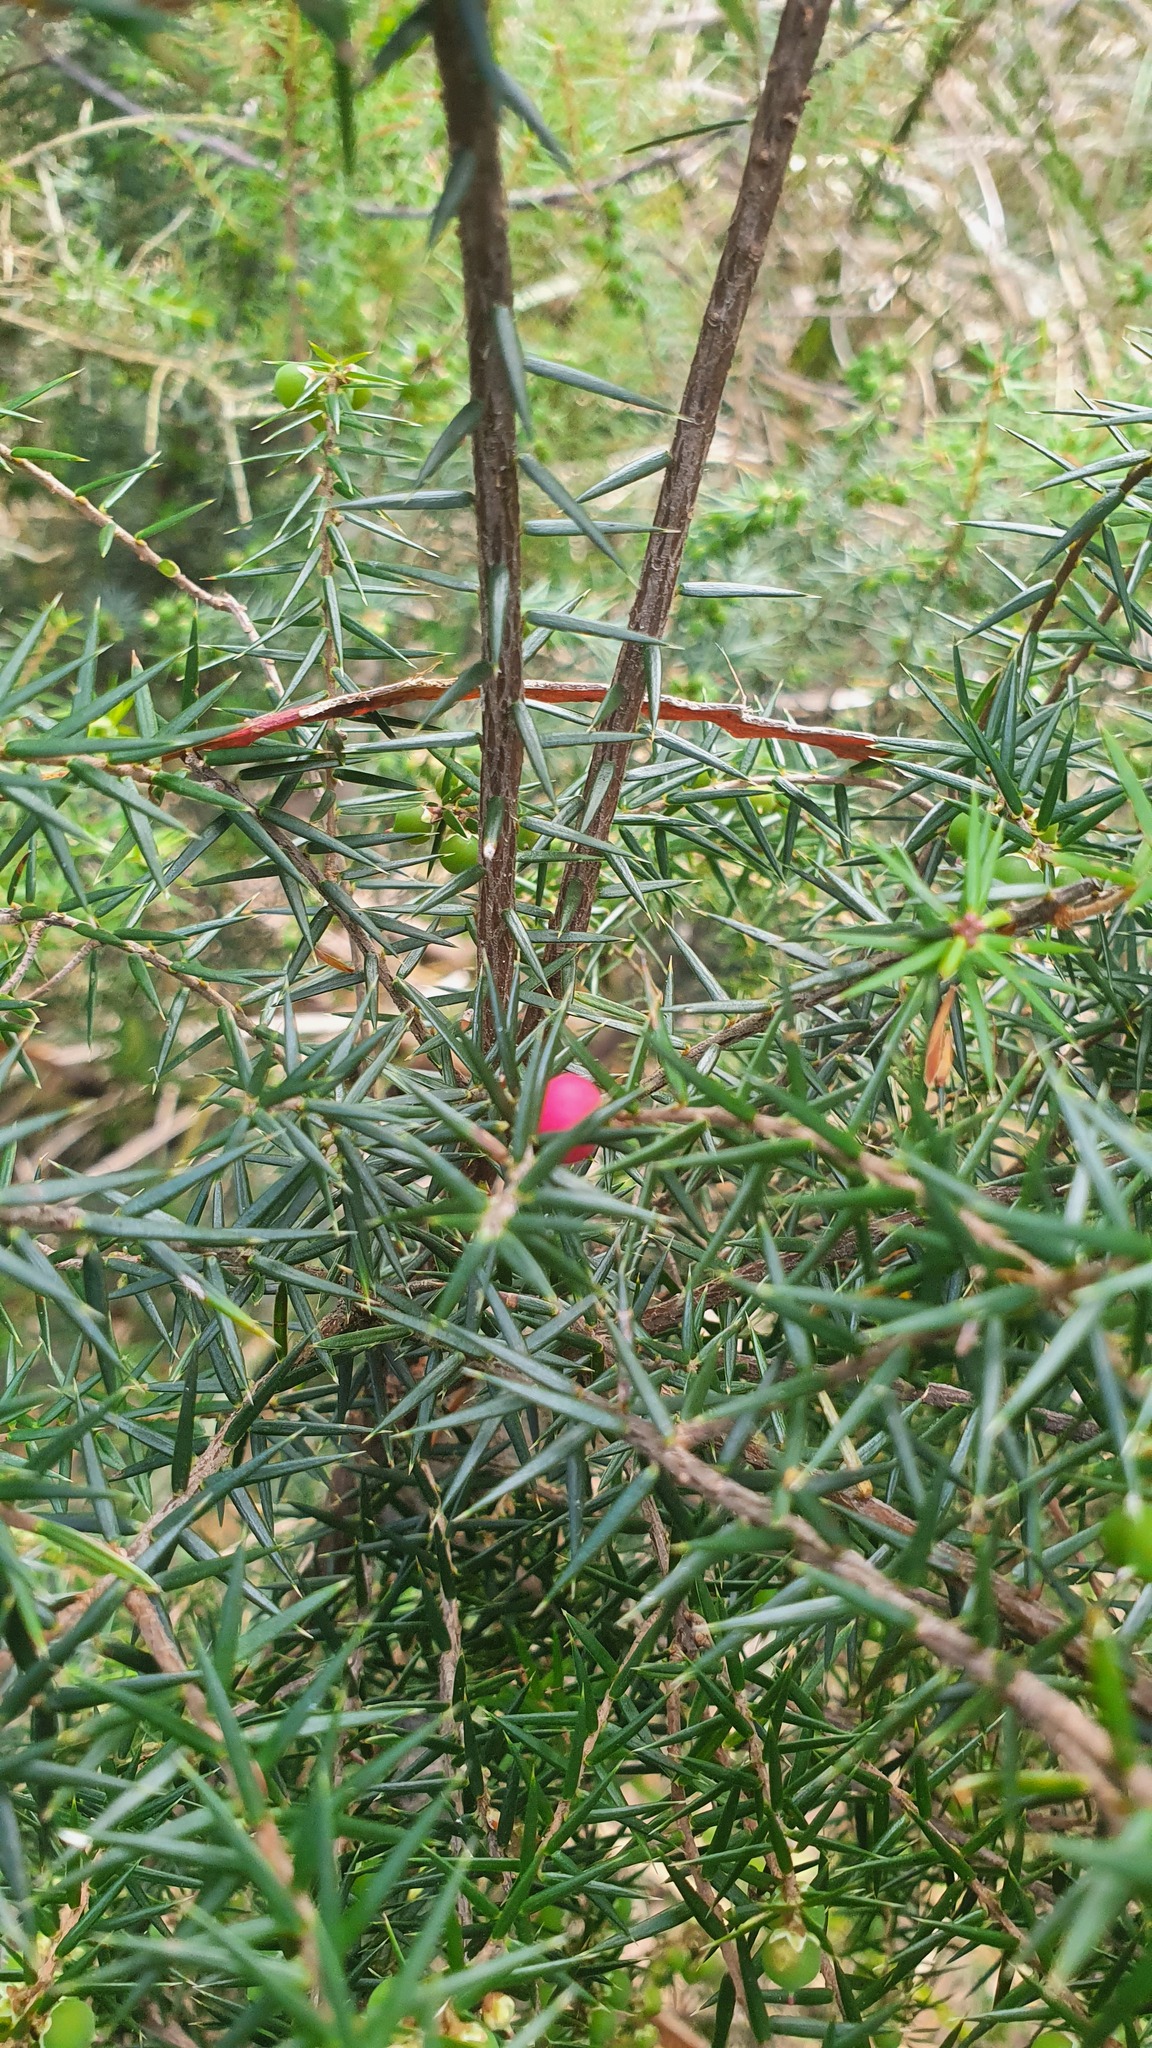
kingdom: Plantae
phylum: Tracheophyta
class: Magnoliopsida
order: Ericales
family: Ericaceae
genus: Leptecophylla
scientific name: Leptecophylla oxycedrus
